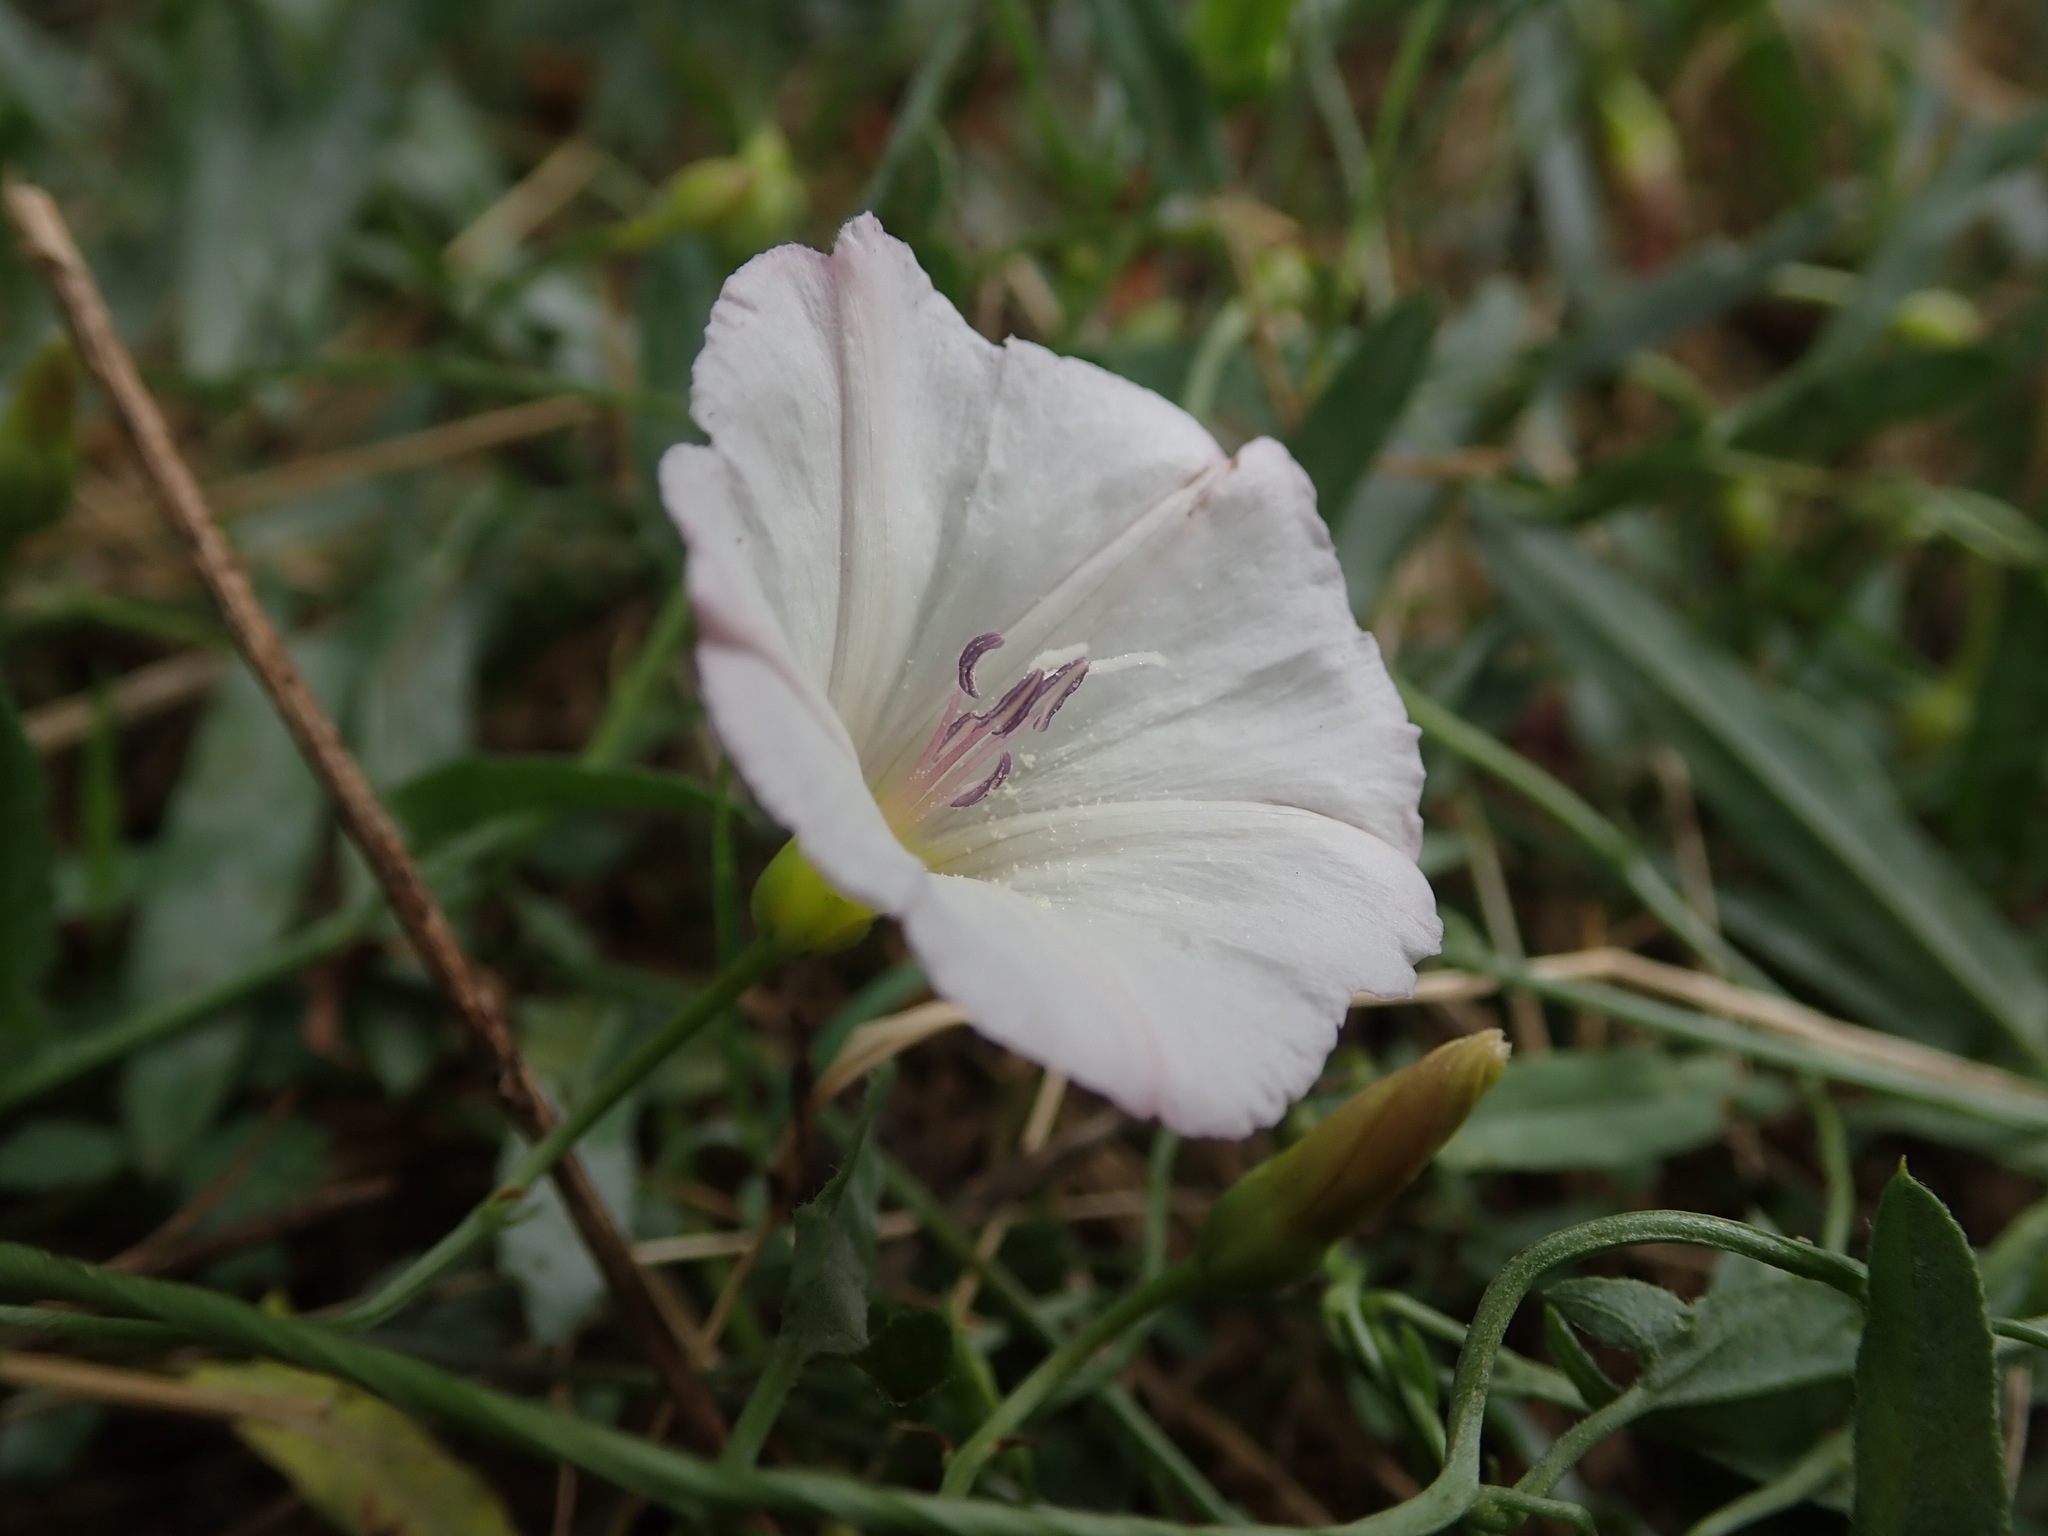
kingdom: Plantae
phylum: Tracheophyta
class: Magnoliopsida
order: Solanales
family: Convolvulaceae
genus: Convolvulus
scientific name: Convolvulus arvensis
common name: Field bindweed
